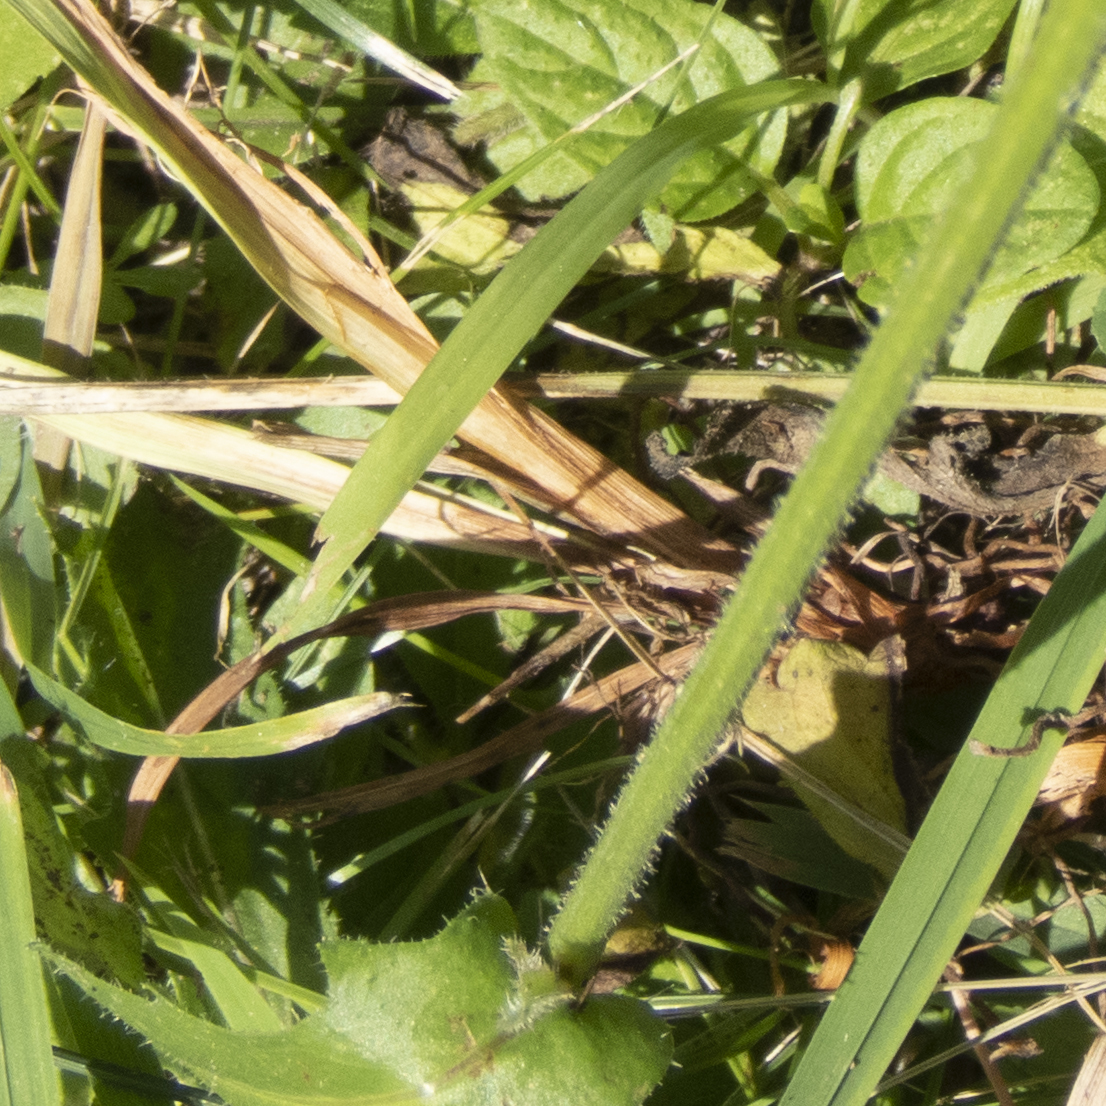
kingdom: Plantae
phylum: Tracheophyta
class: Magnoliopsida
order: Asterales
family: Asteraceae
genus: Picris
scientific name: Picris hieracioides
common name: Hawkweed oxtongue
